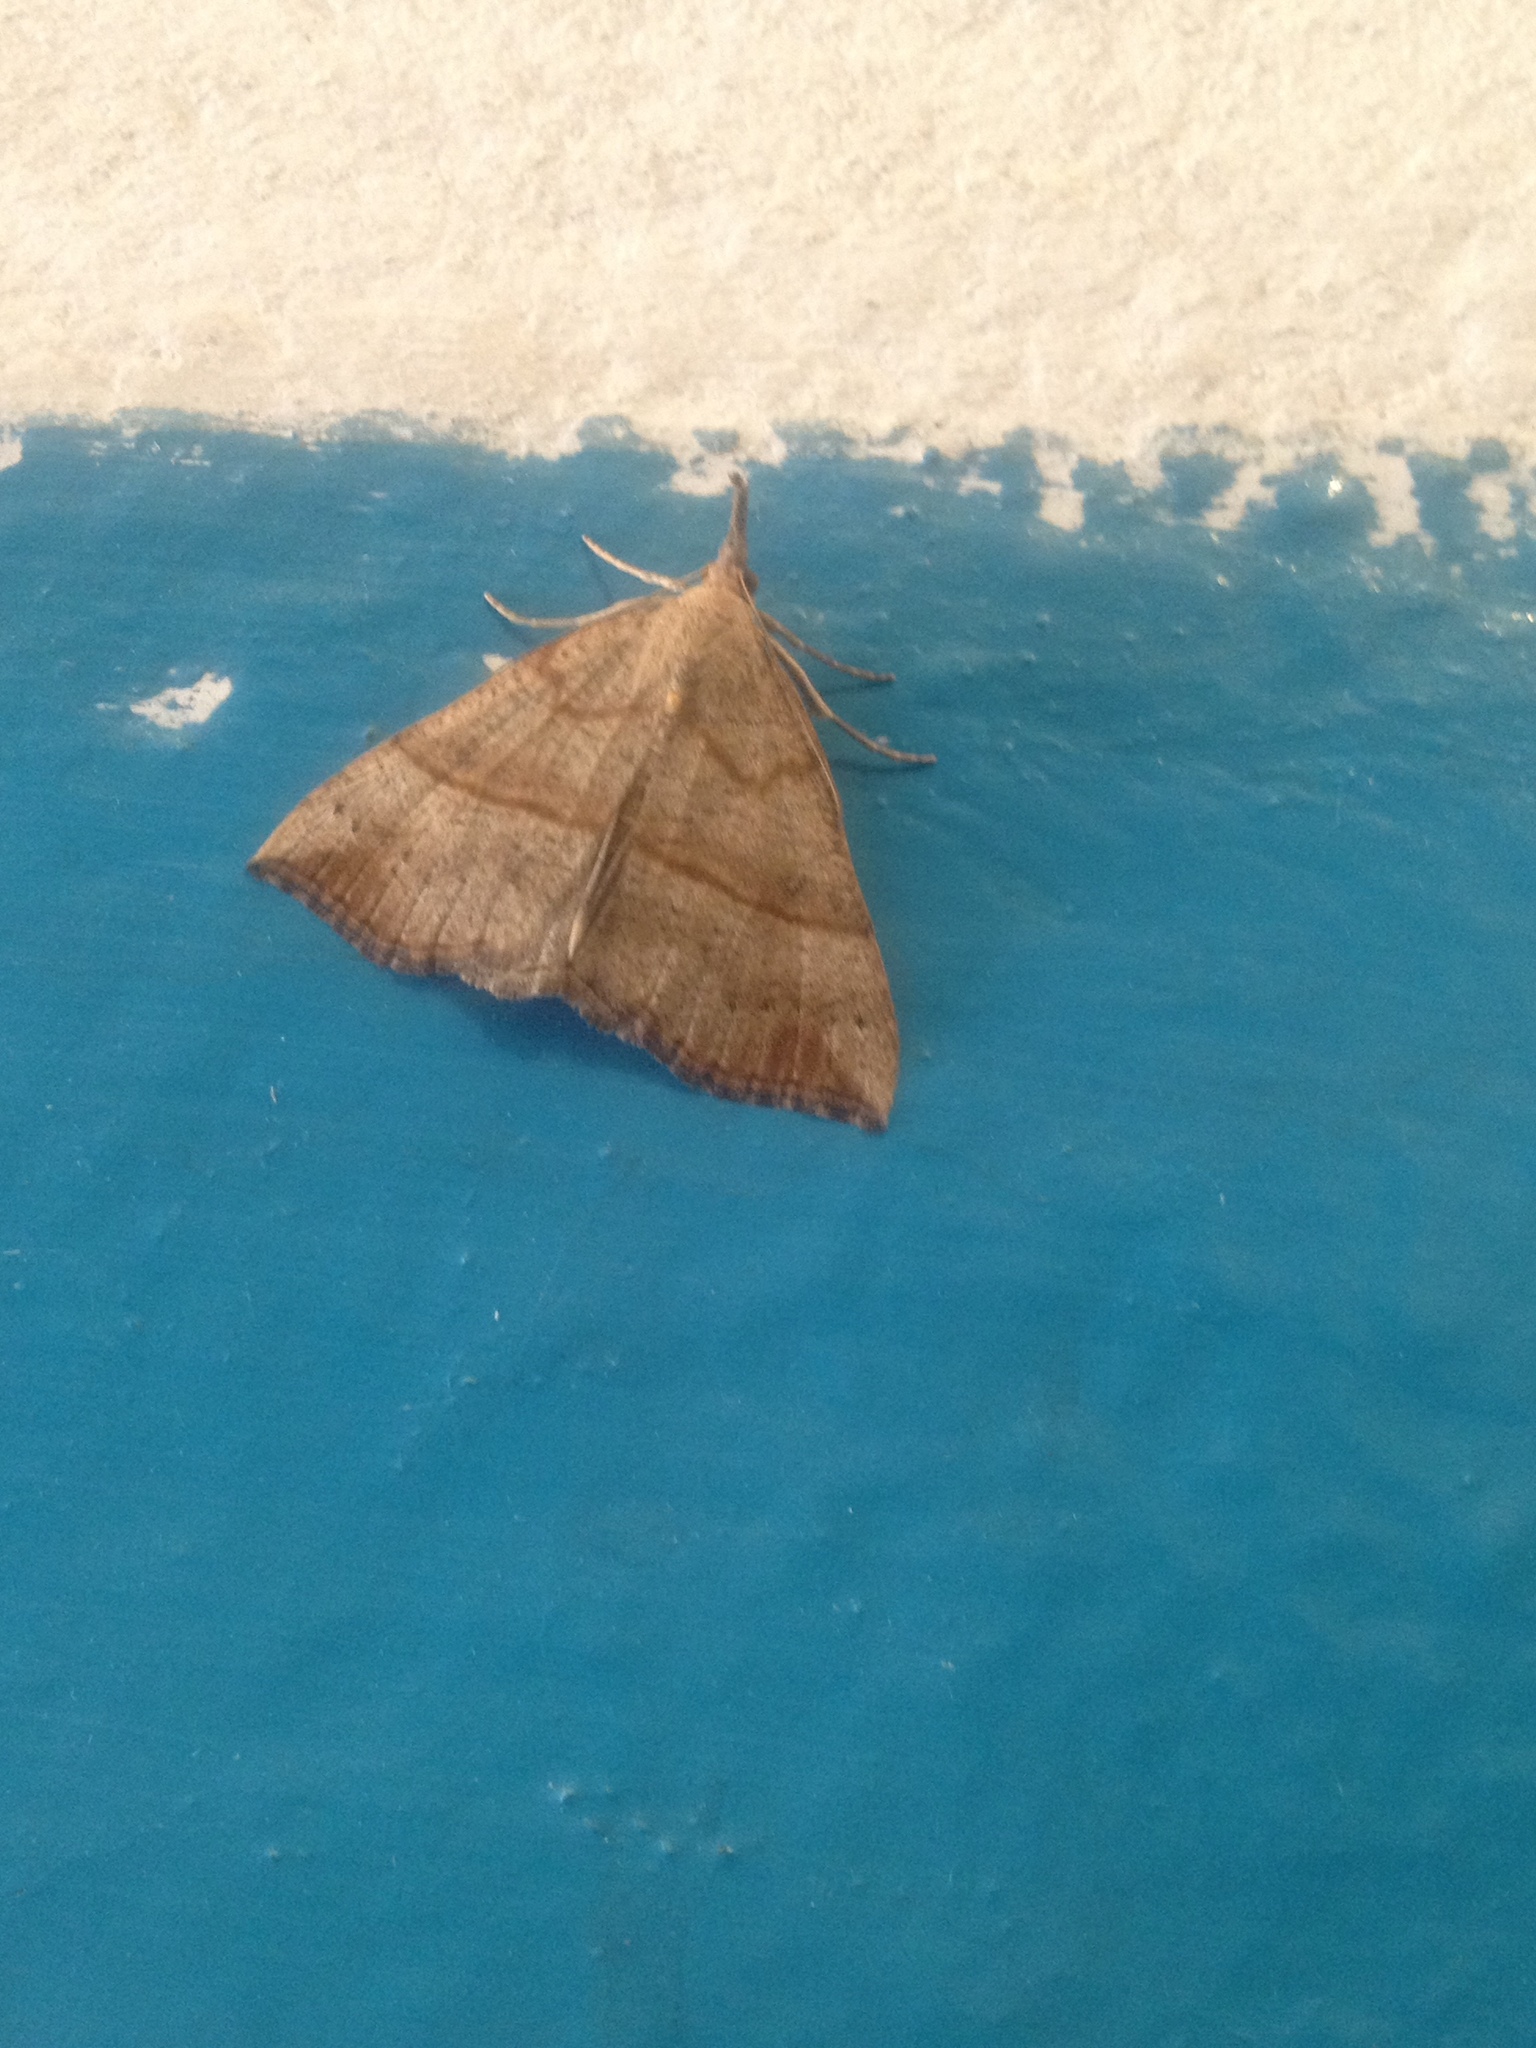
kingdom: Animalia
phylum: Arthropoda
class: Insecta
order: Lepidoptera
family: Erebidae
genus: Hypena
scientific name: Hypena proboscidalis
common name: Snout
